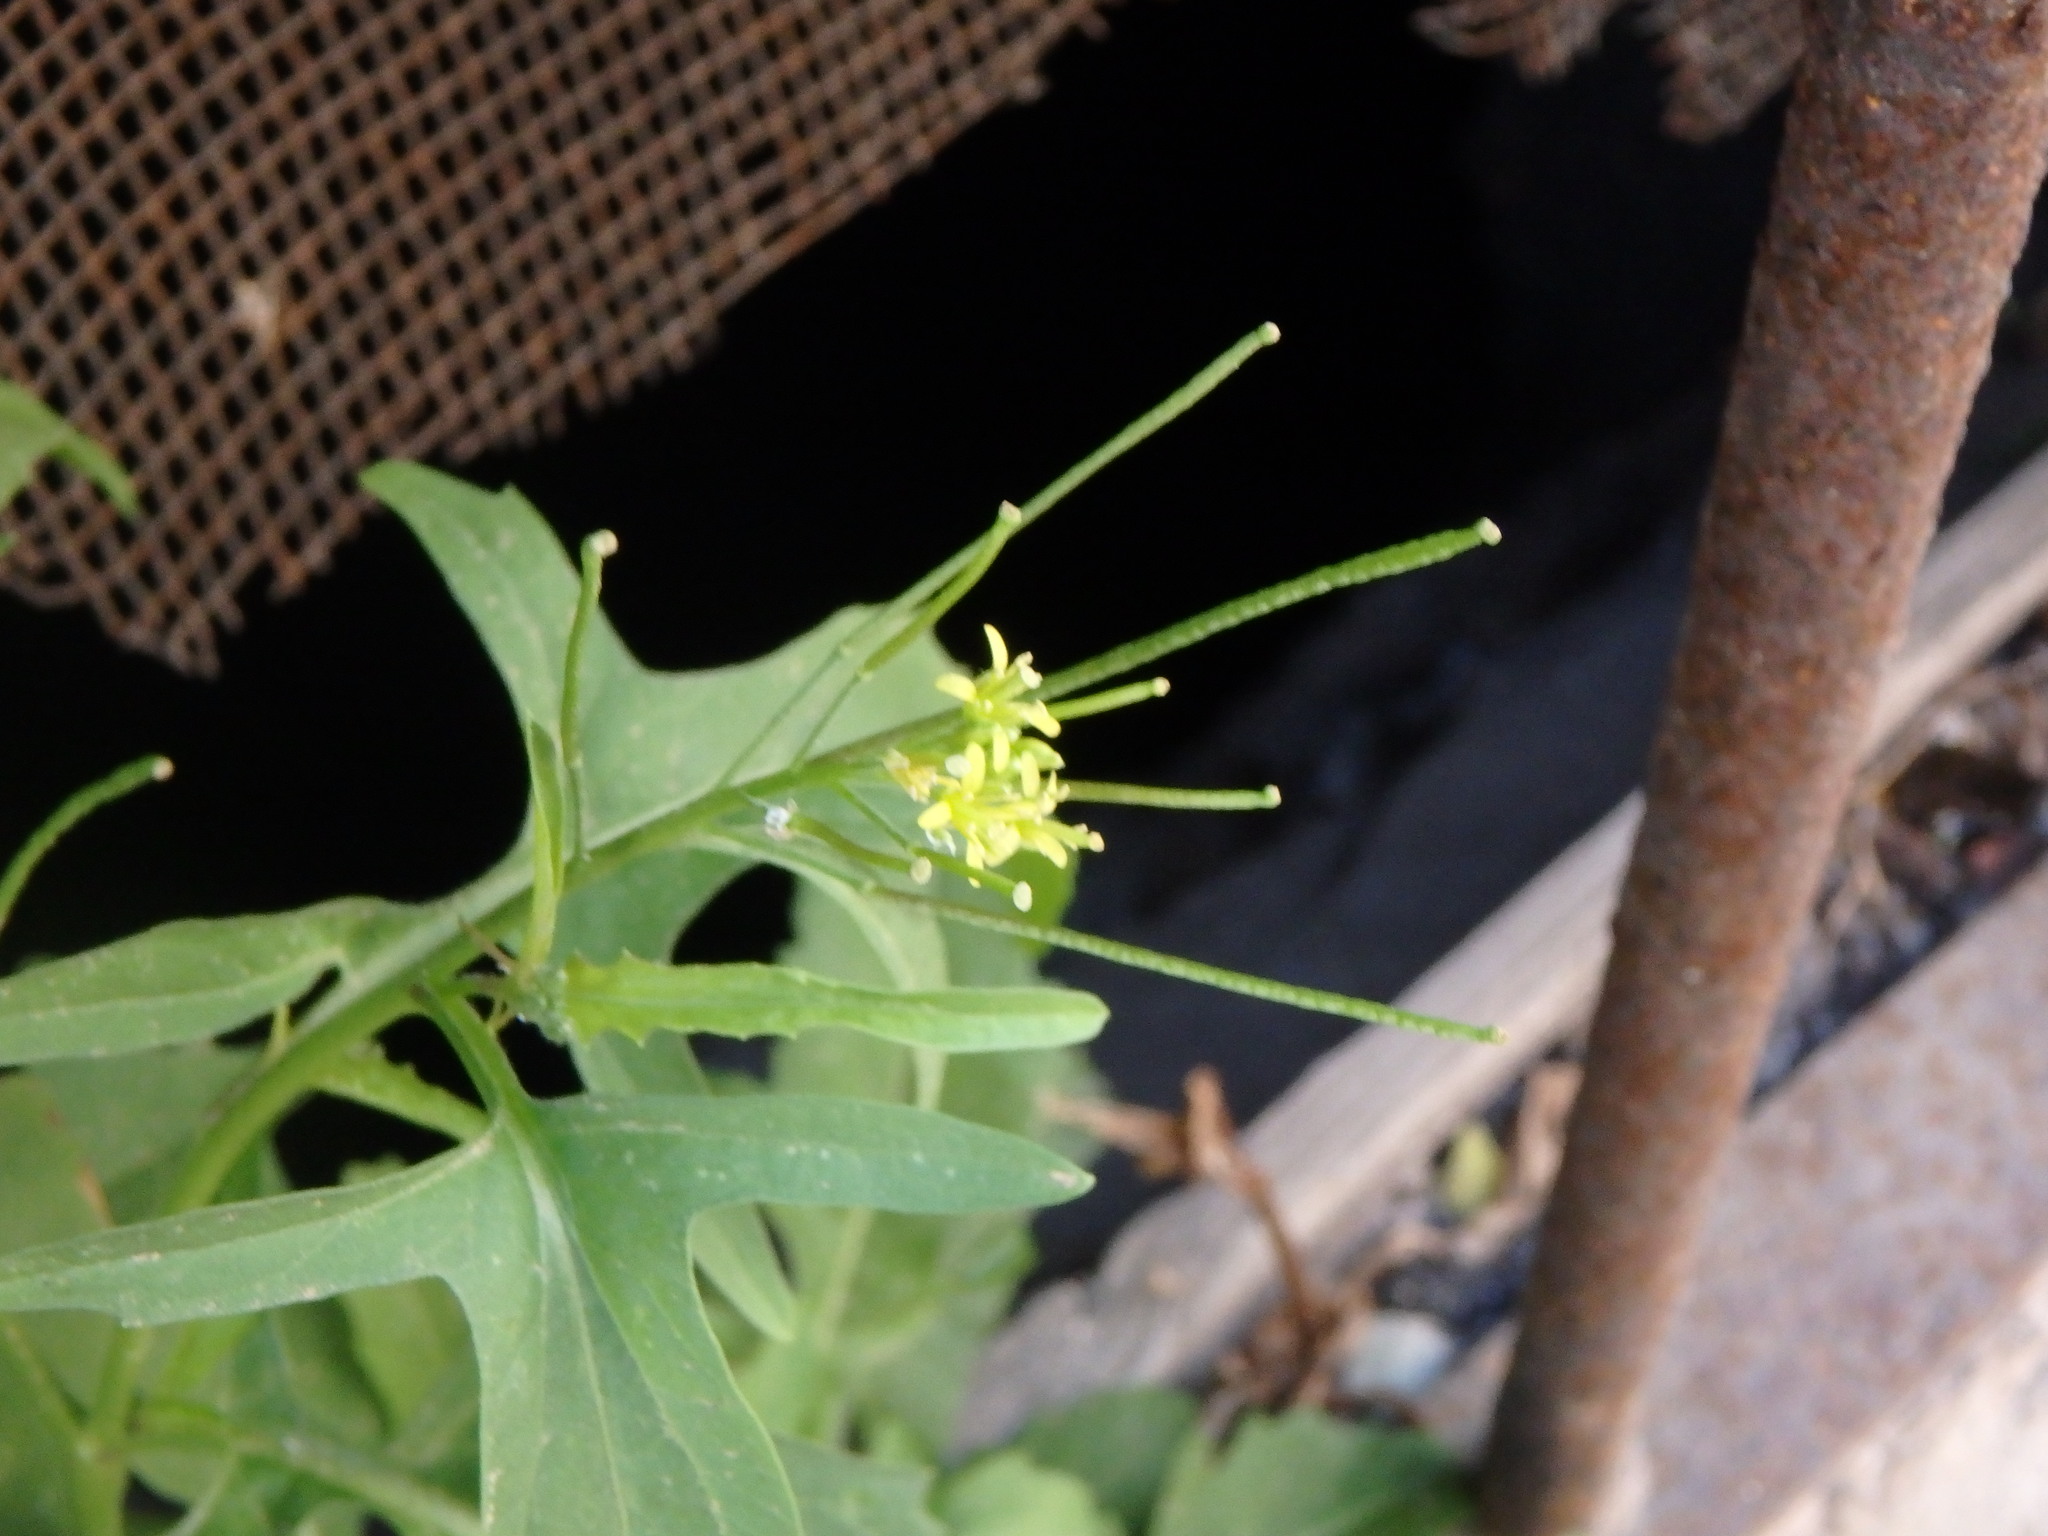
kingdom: Plantae
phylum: Tracheophyta
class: Magnoliopsida
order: Brassicales
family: Brassicaceae
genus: Sisymbrium
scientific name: Sisymbrium irio
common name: London rocket
